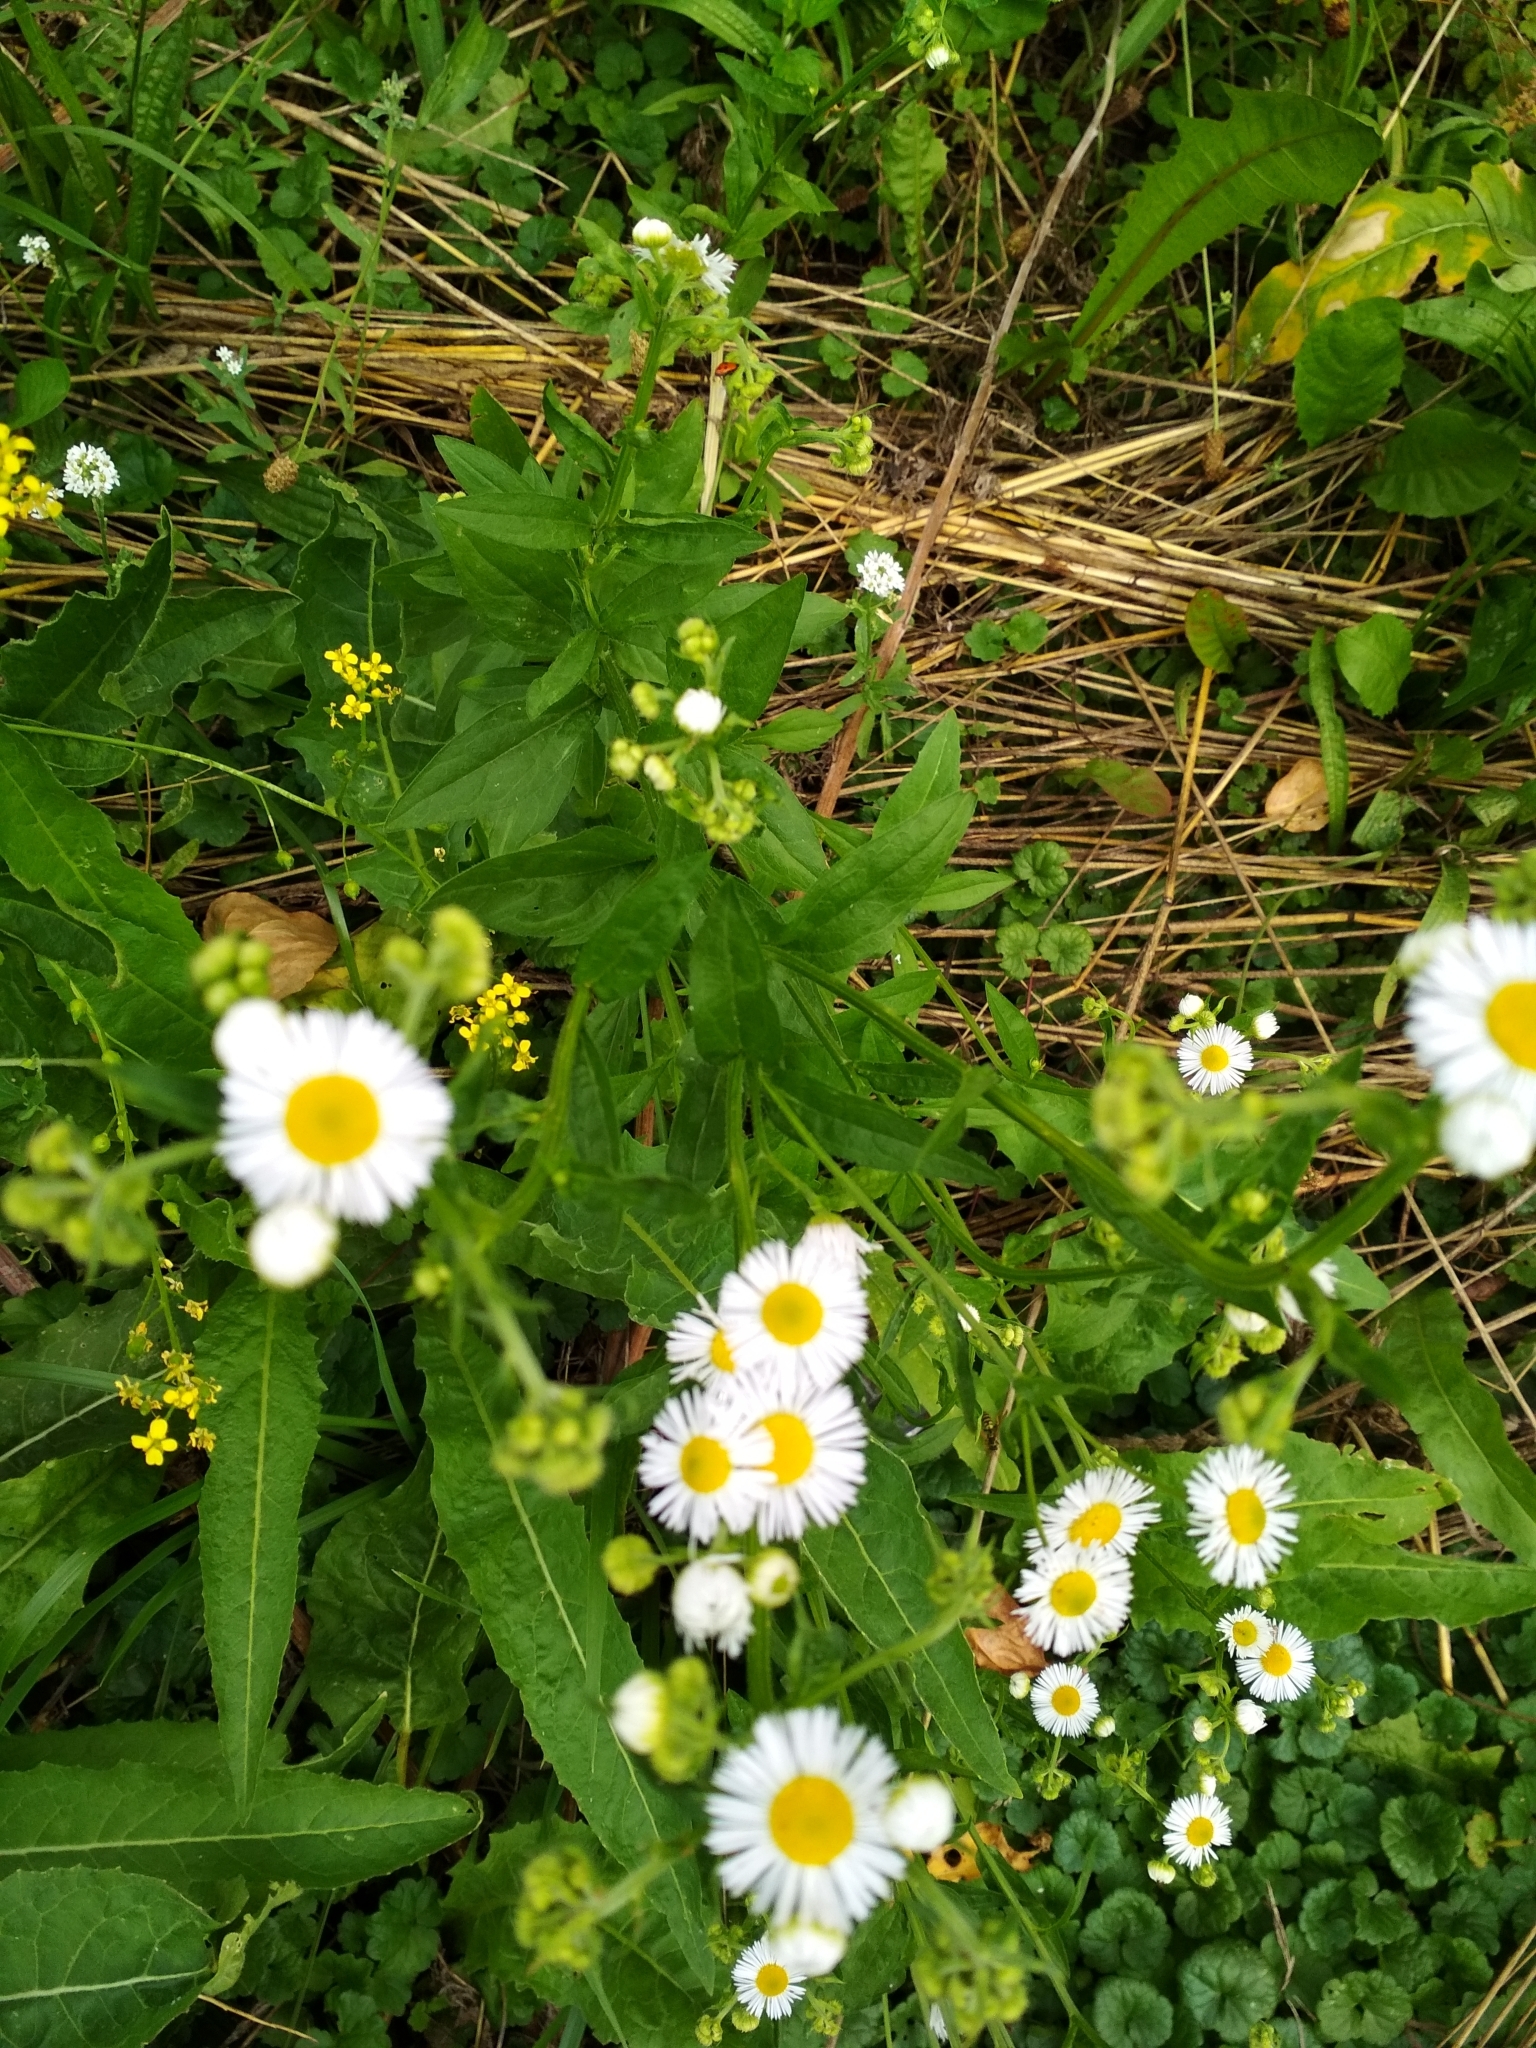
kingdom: Plantae
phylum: Tracheophyta
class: Magnoliopsida
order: Asterales
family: Asteraceae
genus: Erigeron
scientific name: Erigeron annuus
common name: Tall fleabane
